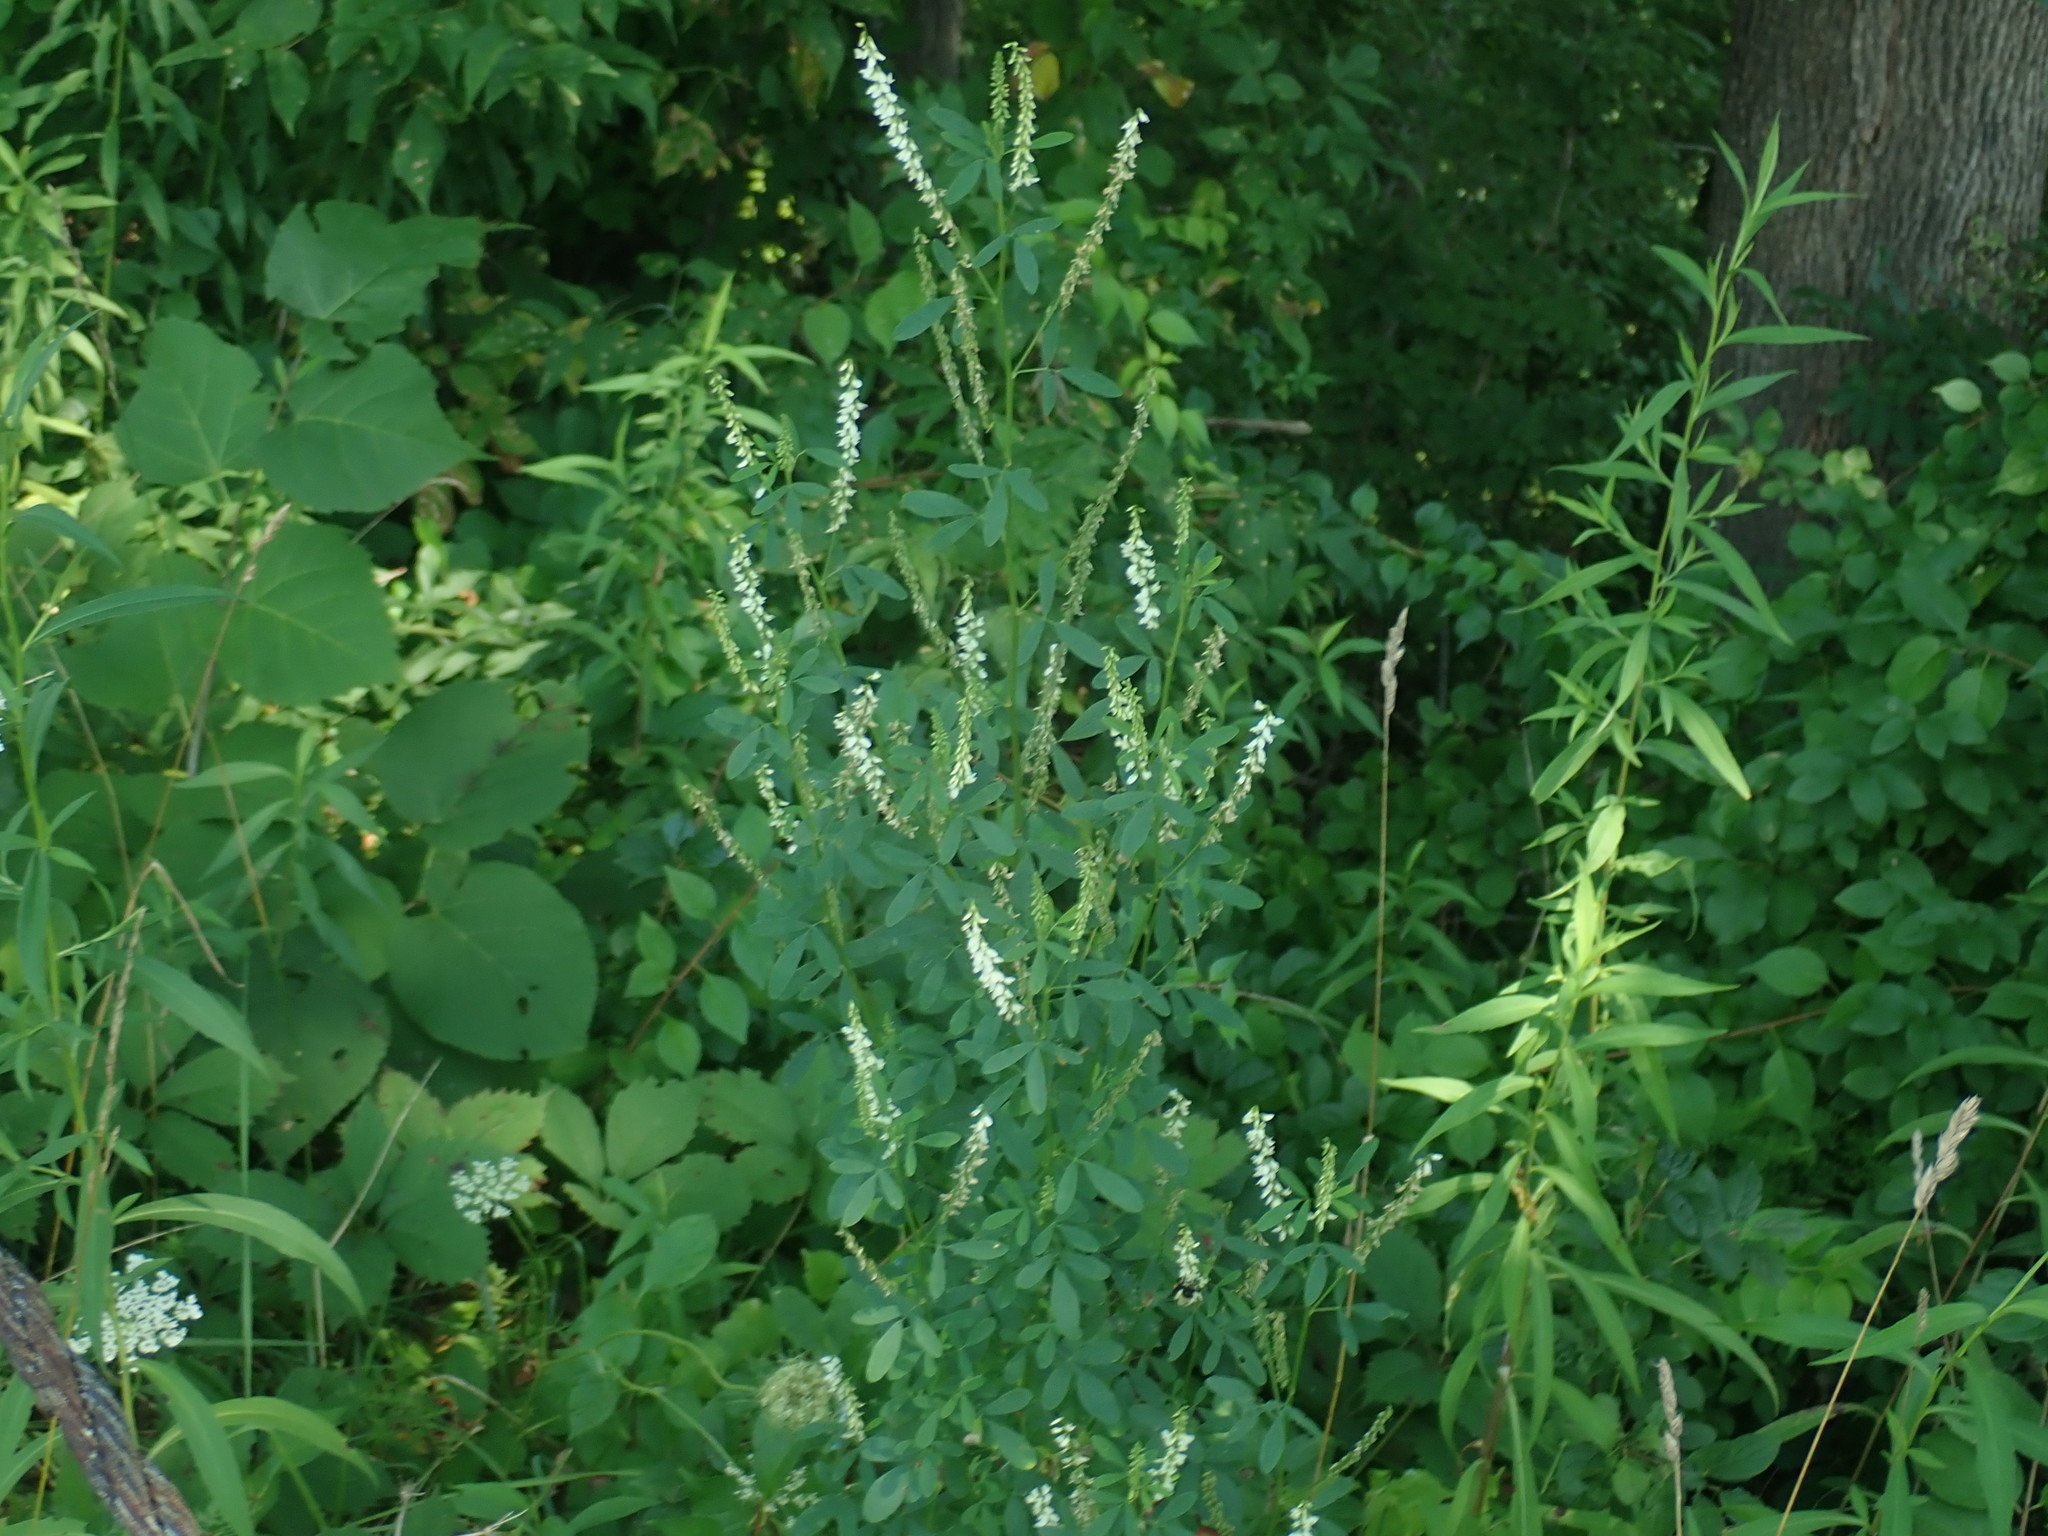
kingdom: Plantae
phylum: Tracheophyta
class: Magnoliopsida
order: Fabales
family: Fabaceae
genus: Melilotus
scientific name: Melilotus albus
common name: White melilot
